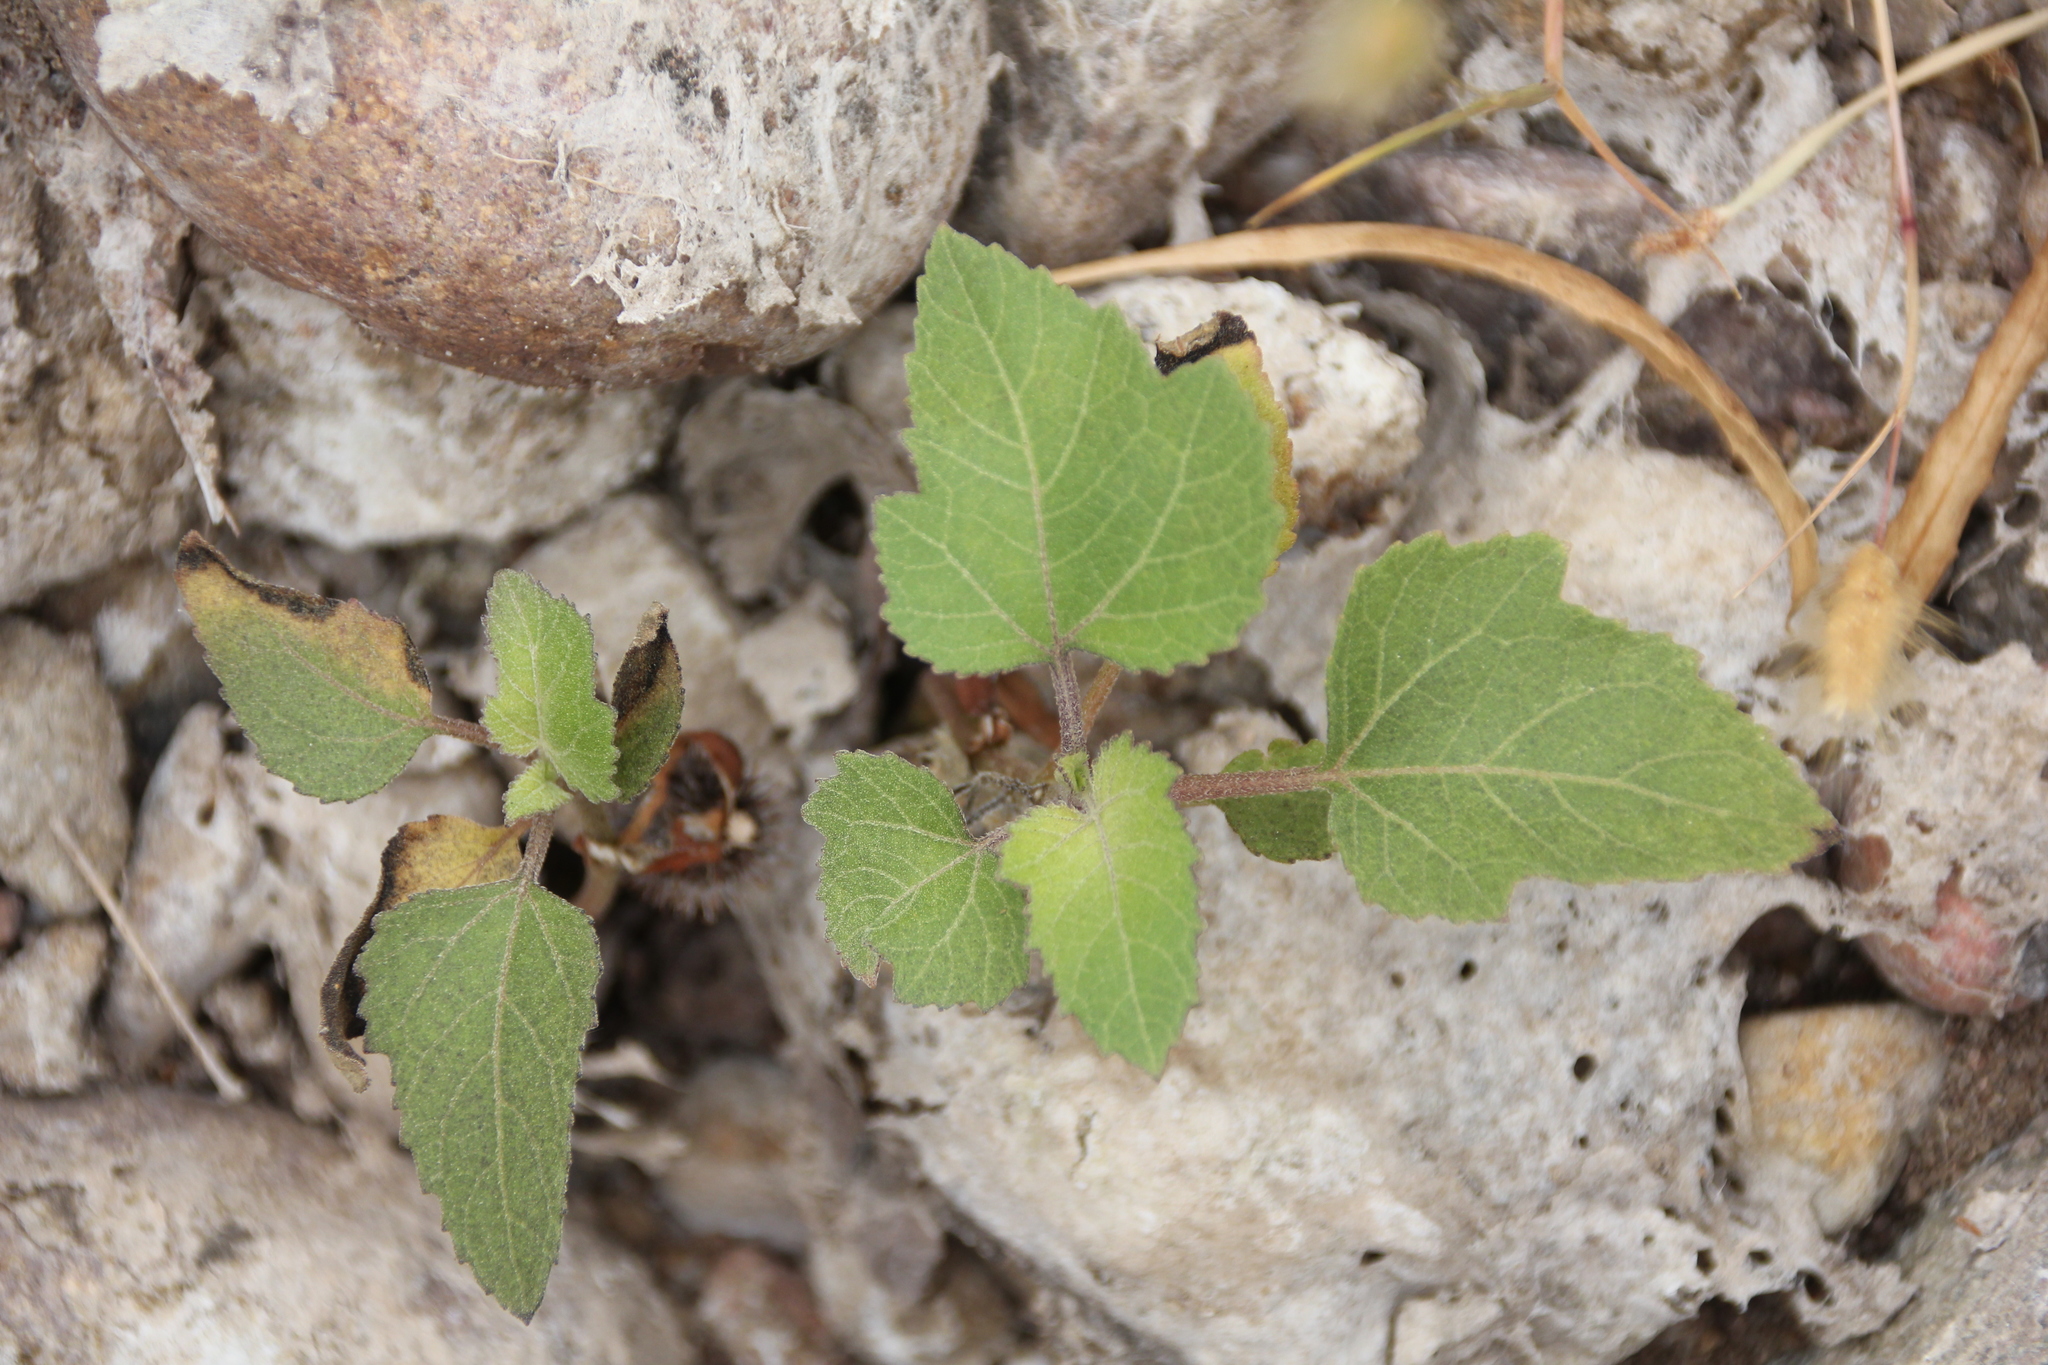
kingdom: Plantae
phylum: Tracheophyta
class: Magnoliopsida
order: Asterales
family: Asteraceae
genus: Xanthium
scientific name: Xanthium strumarium
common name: Rough cocklebur
